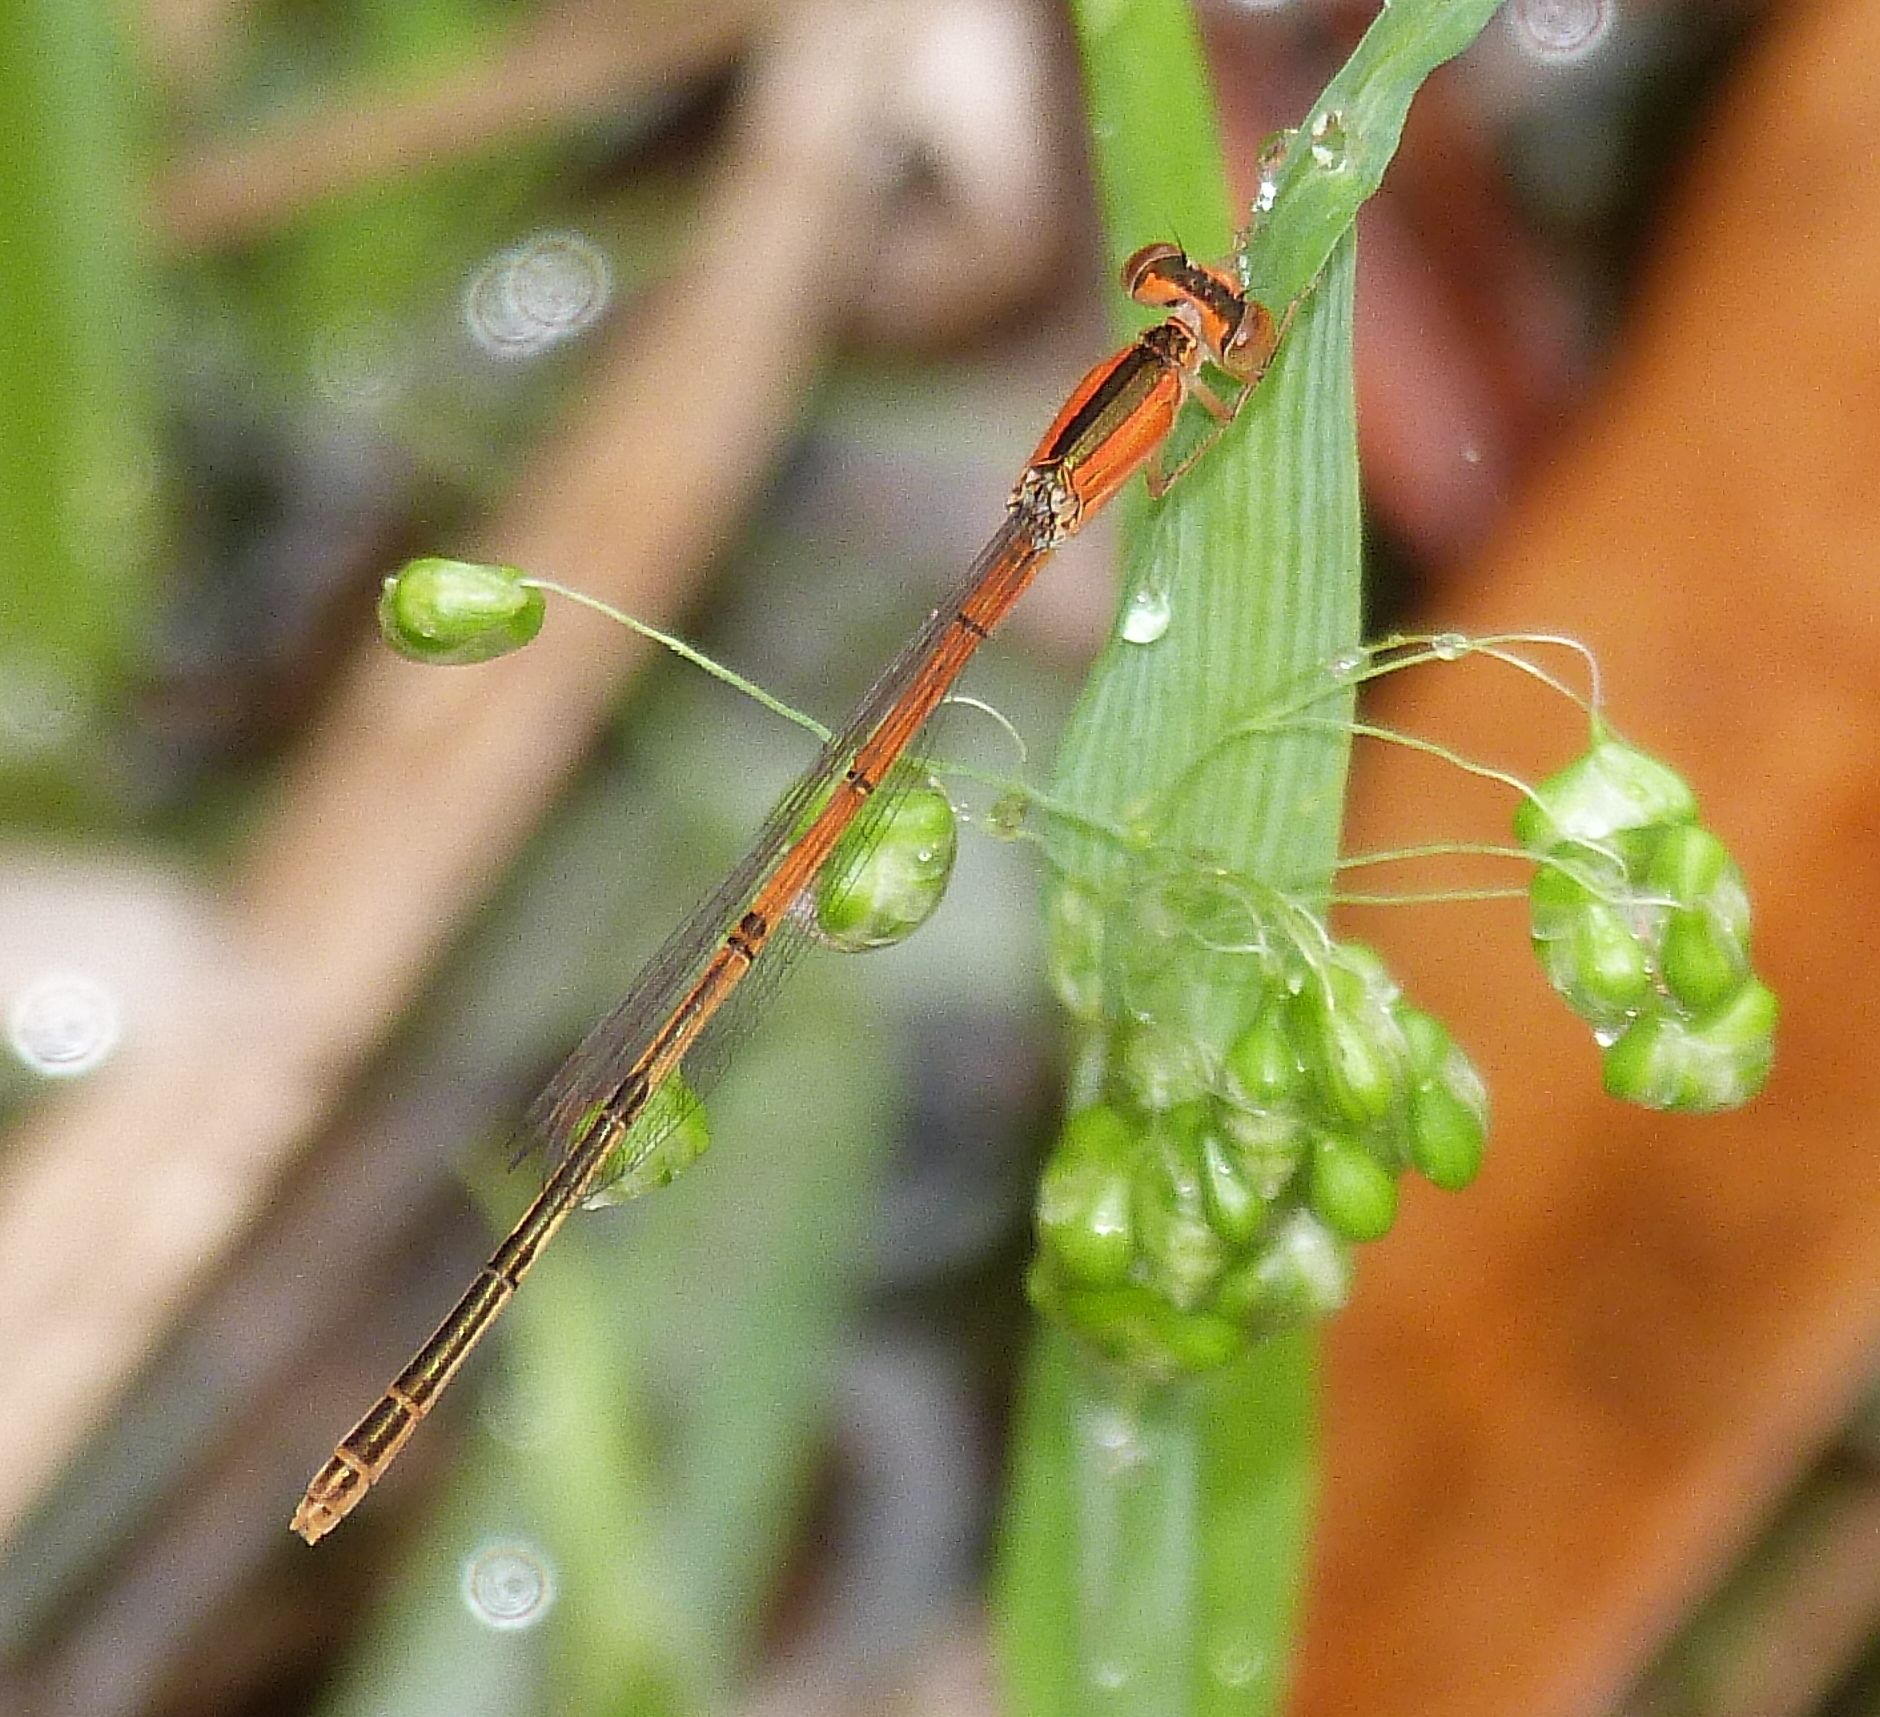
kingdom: Animalia
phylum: Arthropoda
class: Insecta
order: Odonata
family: Coenagrionidae
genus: Ischnura
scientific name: Ischnura hastata
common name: Citrine forktail
